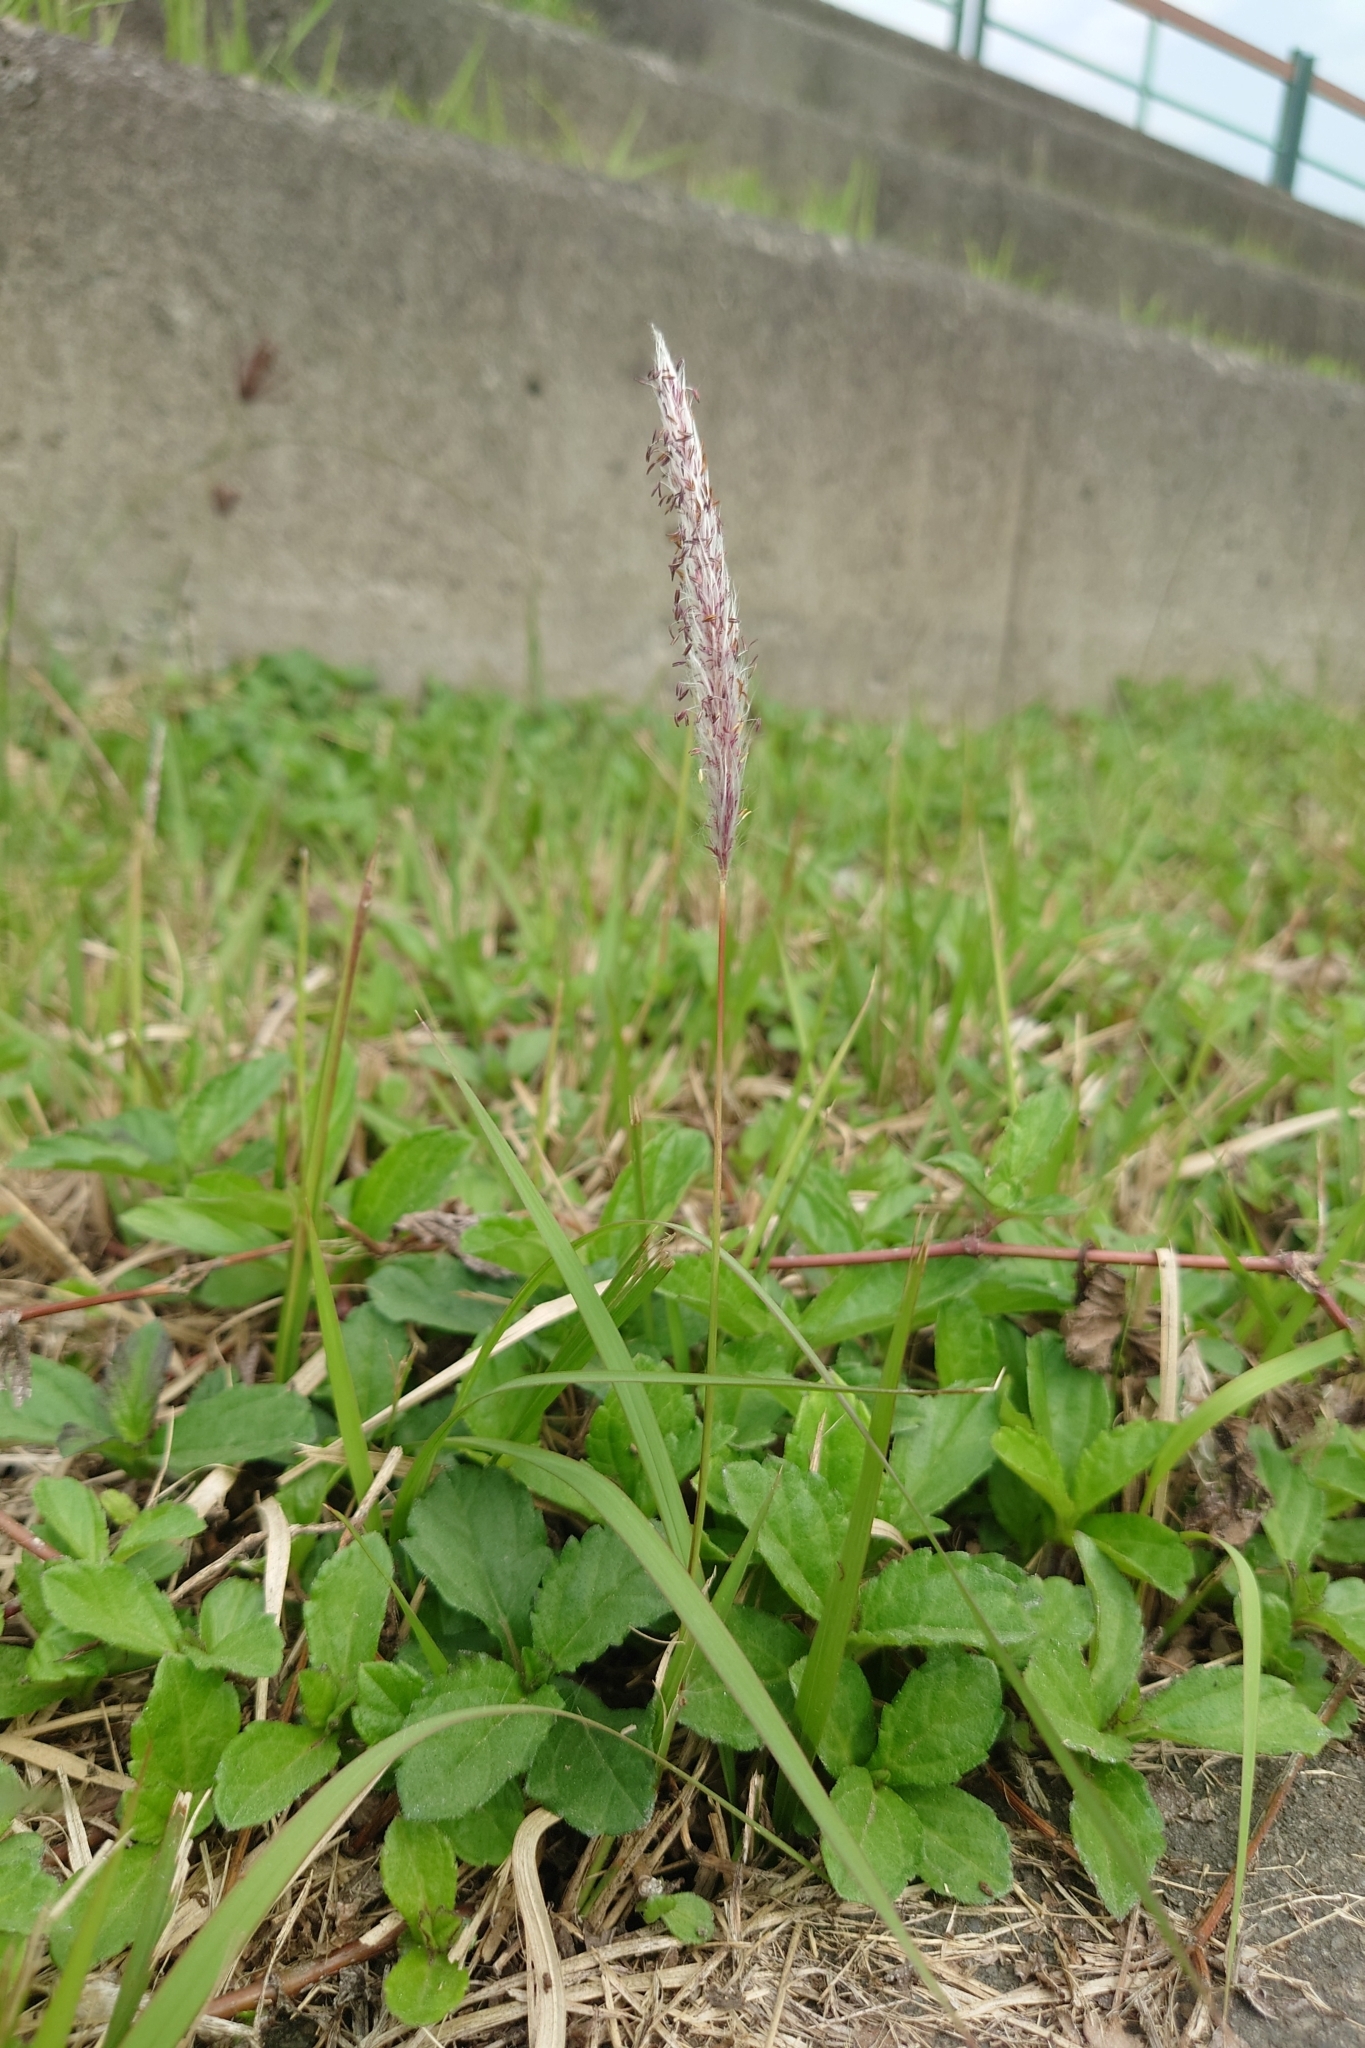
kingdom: Plantae
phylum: Tracheophyta
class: Liliopsida
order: Poales
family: Poaceae
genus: Imperata
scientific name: Imperata cylindrica
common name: Cogongrass
